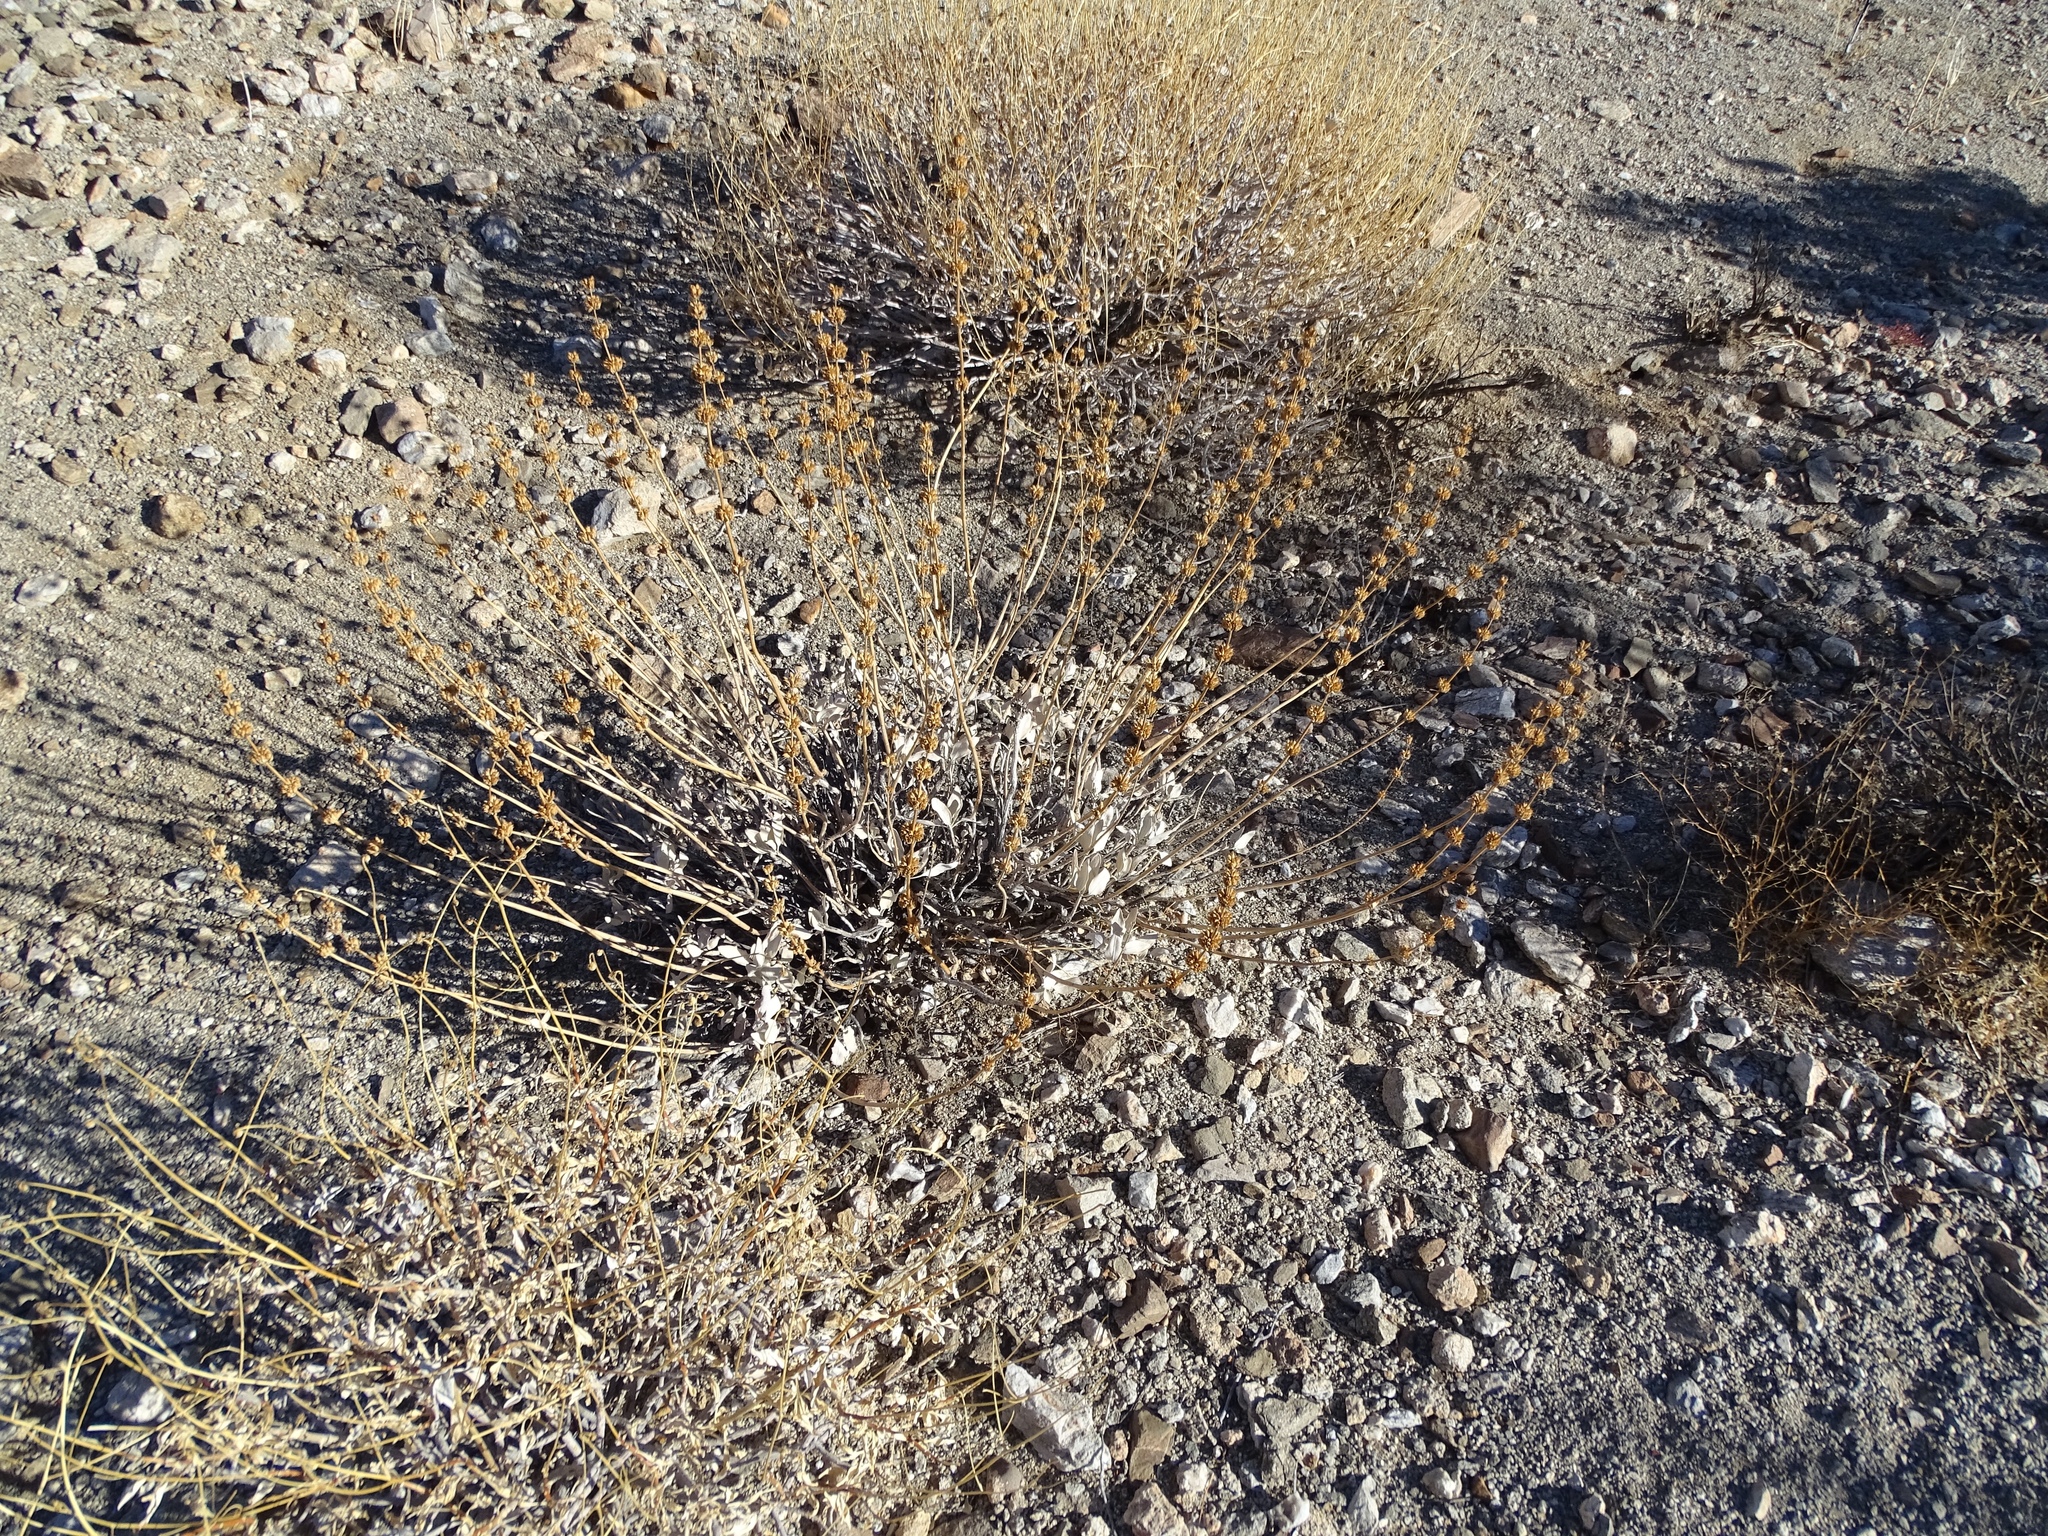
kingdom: Plantae
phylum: Tracheophyta
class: Magnoliopsida
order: Lamiales
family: Lamiaceae
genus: Salvia
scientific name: Salvia vaseyi
